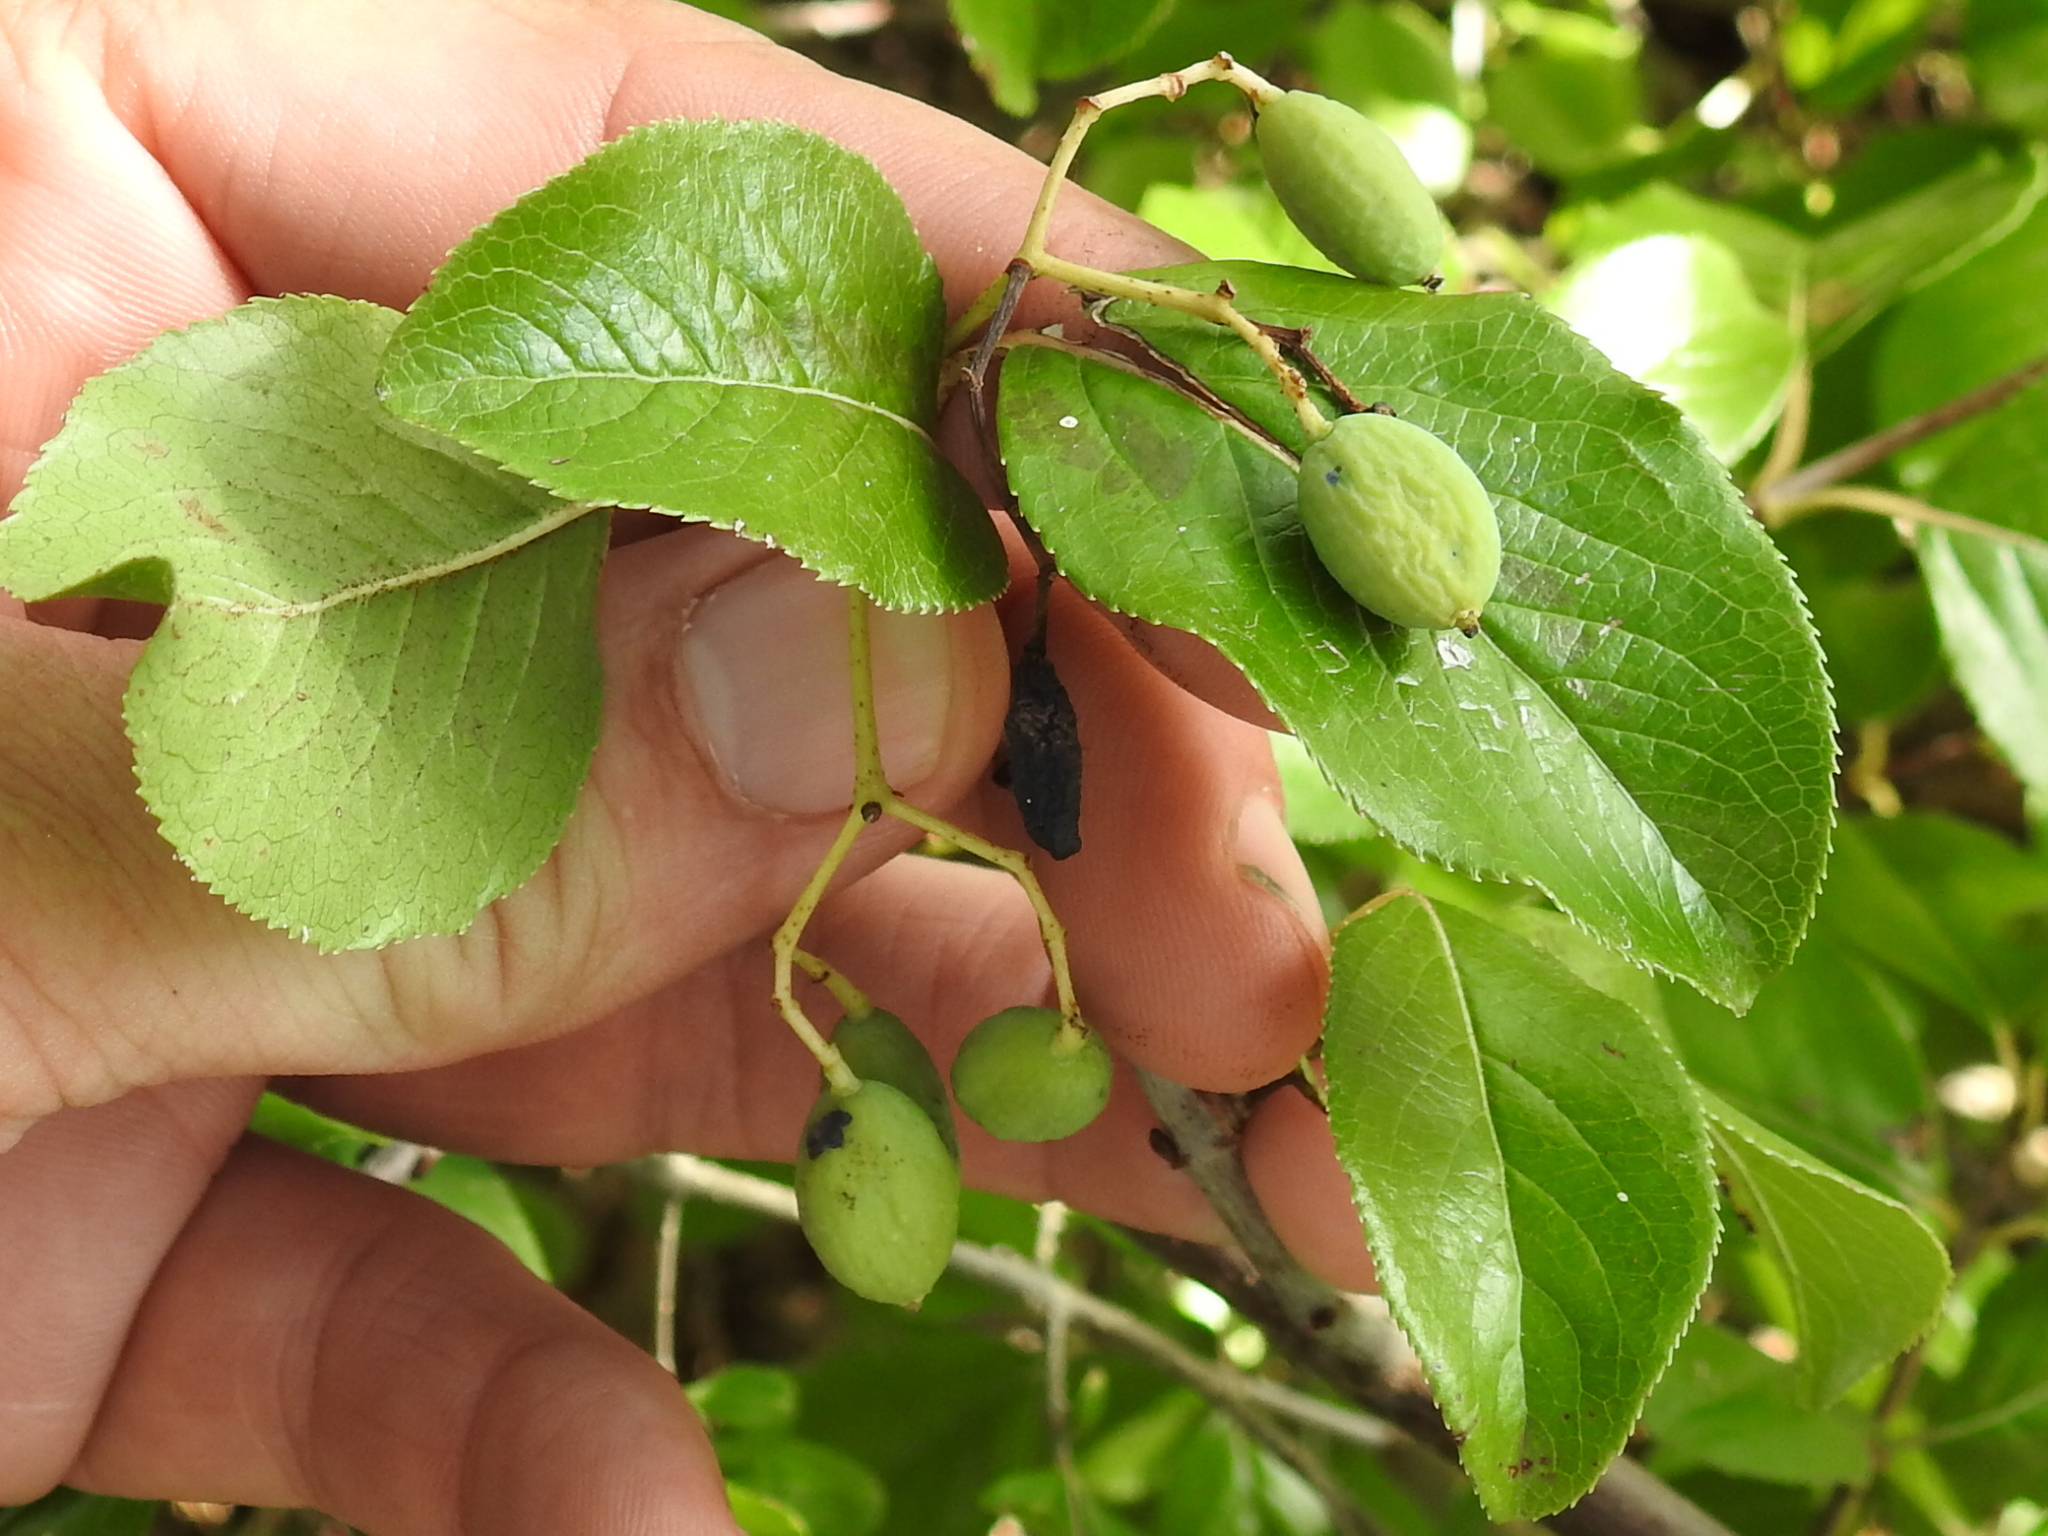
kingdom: Plantae
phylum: Tracheophyta
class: Magnoliopsida
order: Dipsacales
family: Viburnaceae
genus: Viburnum
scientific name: Viburnum rufidulum
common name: Blue haw
